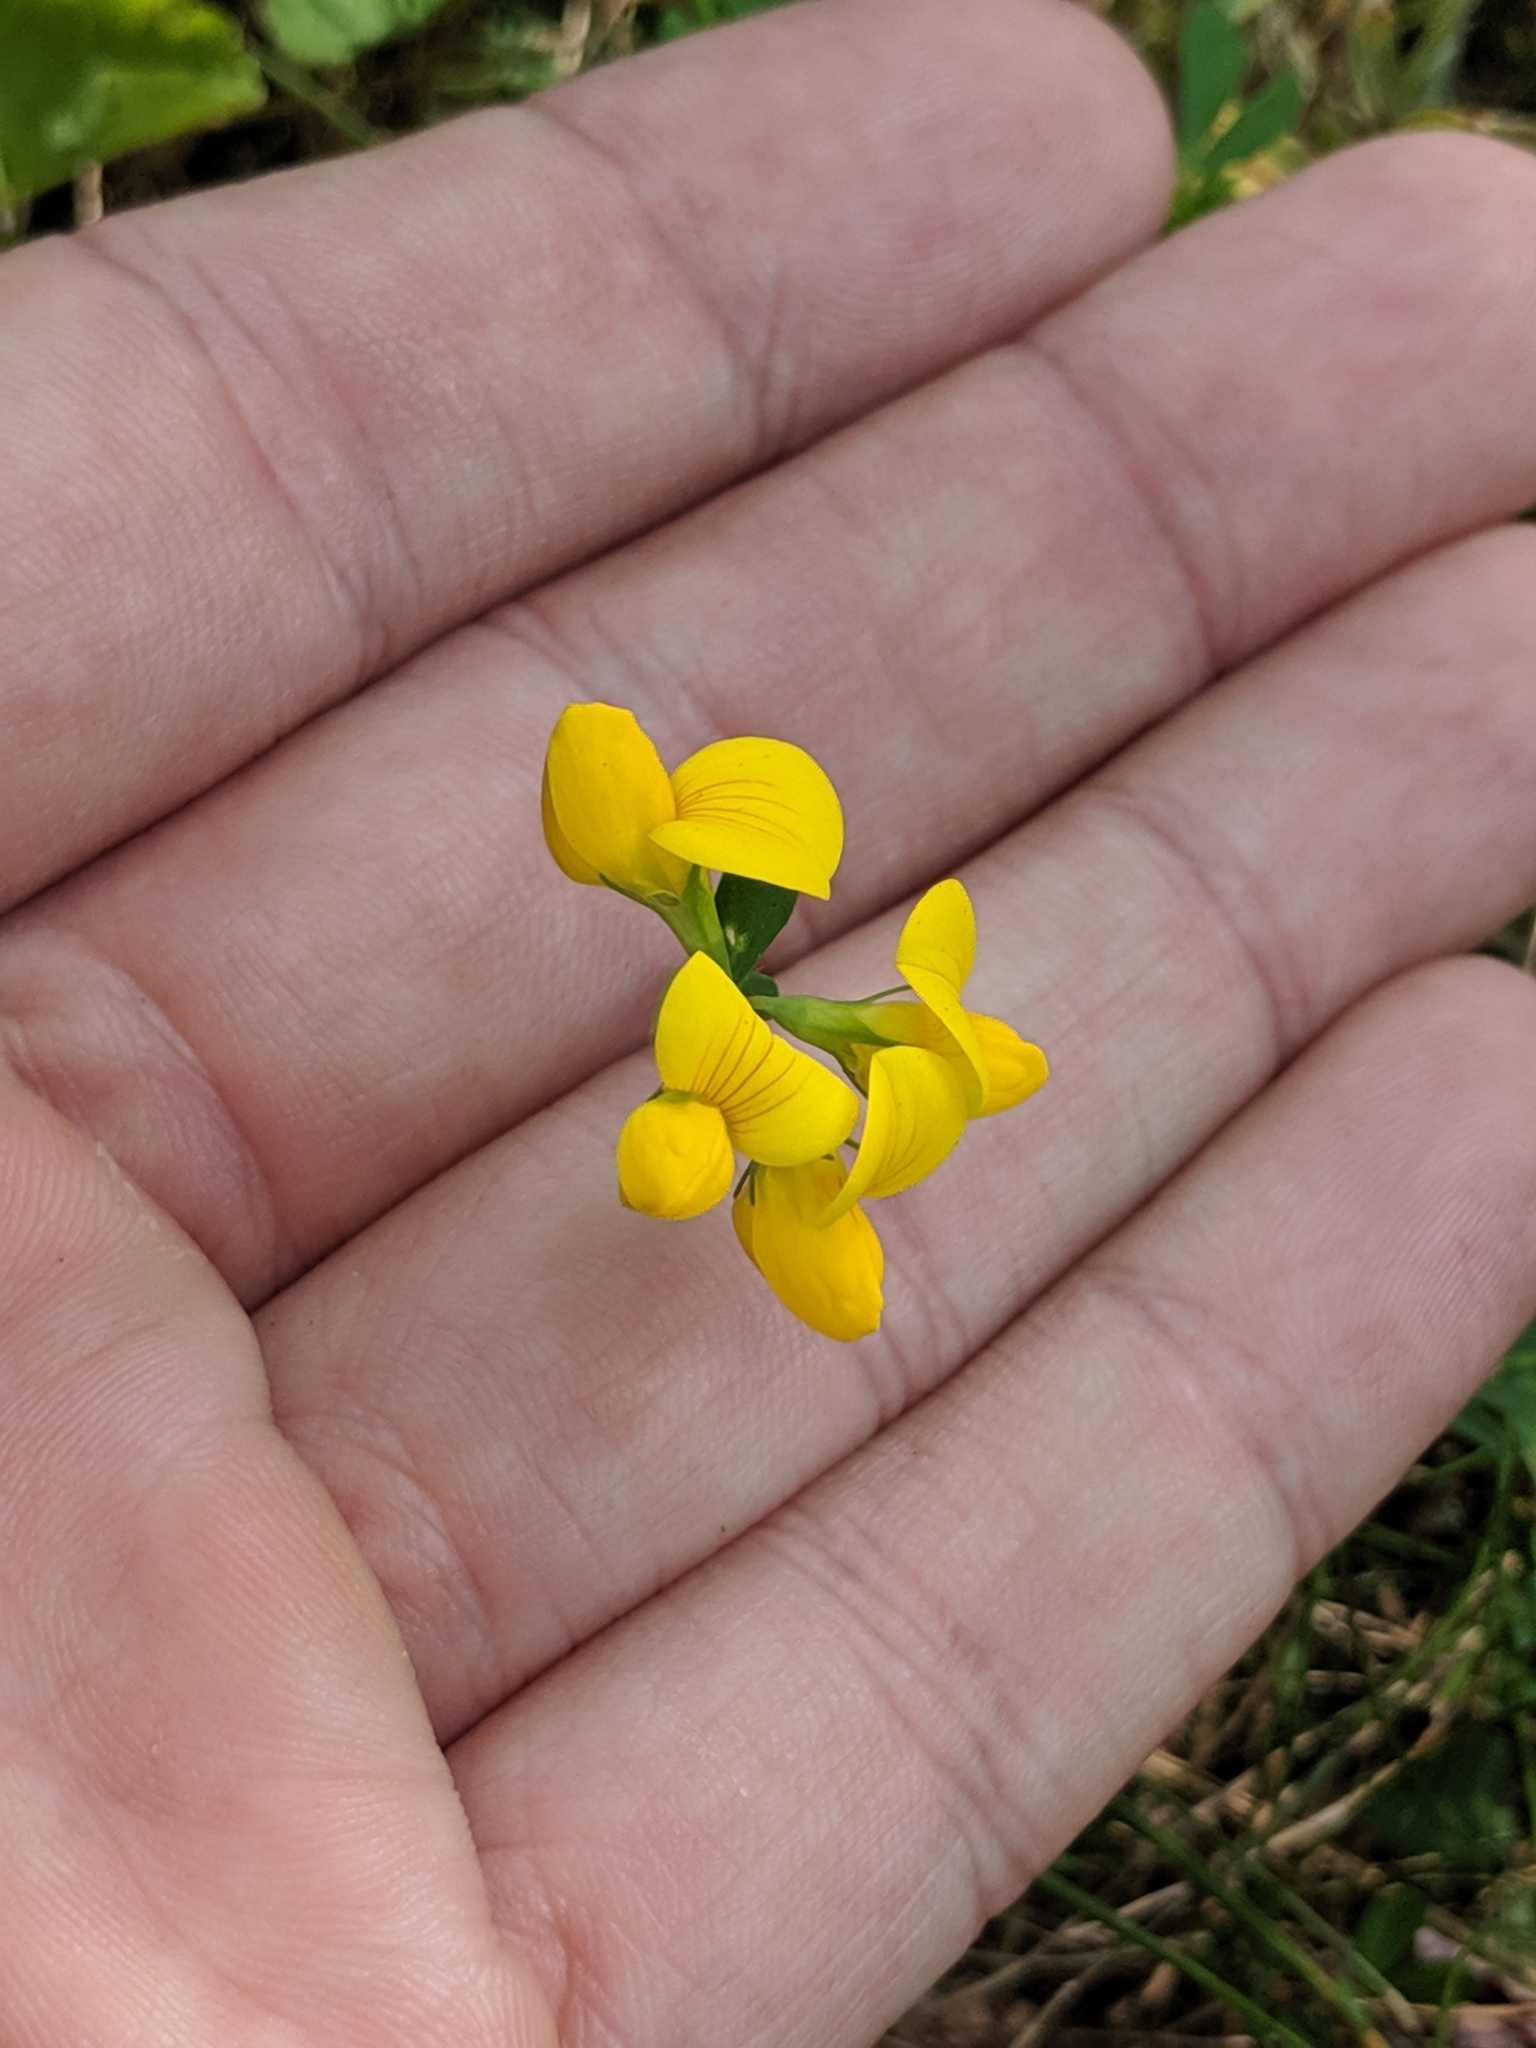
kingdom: Plantae
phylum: Tracheophyta
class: Magnoliopsida
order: Fabales
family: Fabaceae
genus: Lotus
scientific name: Lotus corniculatus
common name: Common bird's-foot-trefoil
